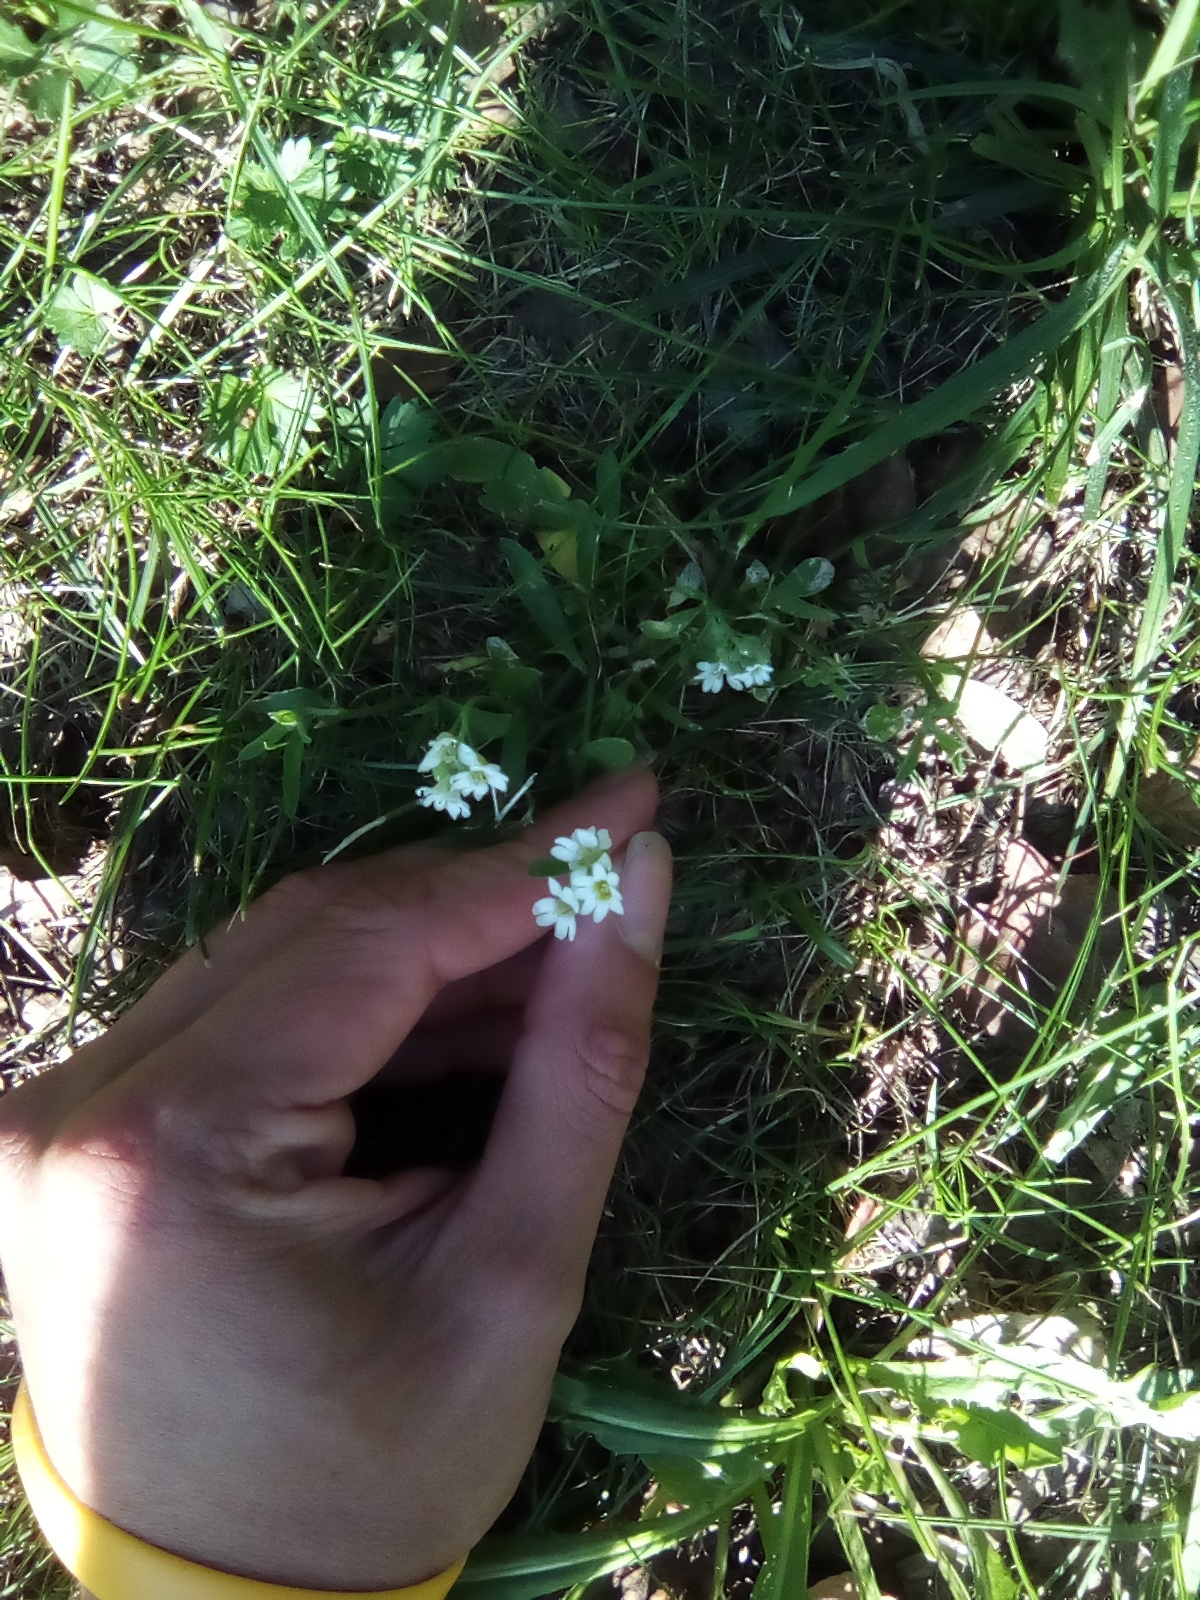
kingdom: Plantae
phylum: Tracheophyta
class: Magnoliopsida
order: Brassicales
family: Brassicaceae
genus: Berteroa
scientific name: Berteroa incana
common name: Hoary alison
